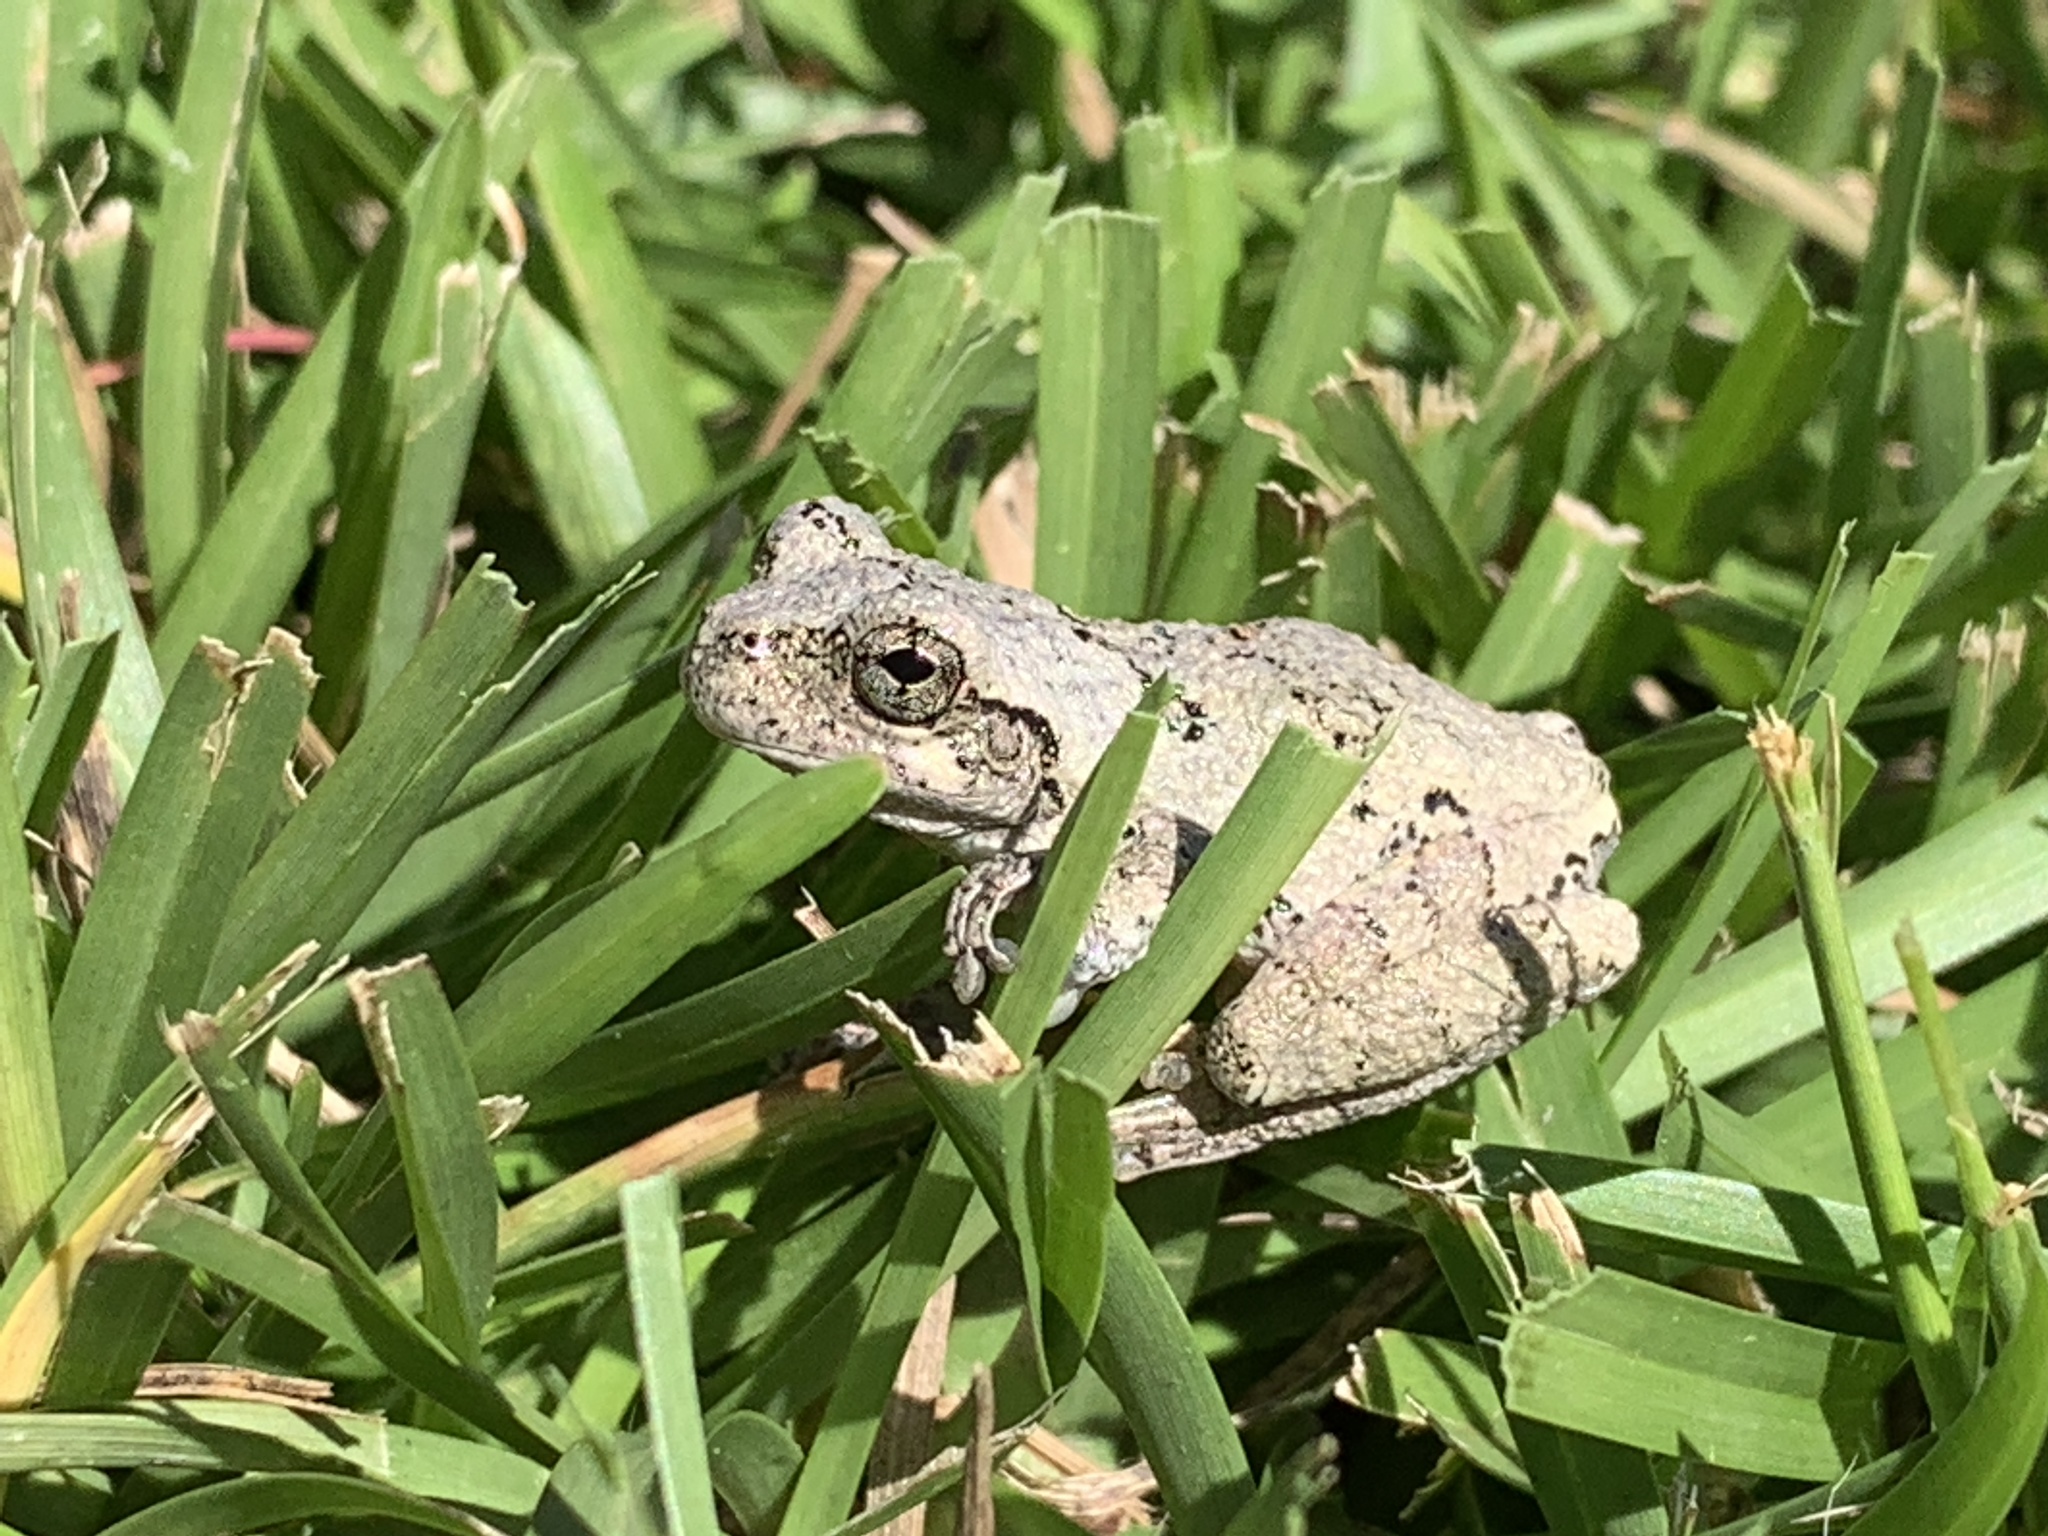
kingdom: Animalia
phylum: Chordata
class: Amphibia
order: Anura
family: Hylidae
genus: Dryophytes
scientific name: Dryophytes chrysoscelis
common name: Cope's gray treefrog
